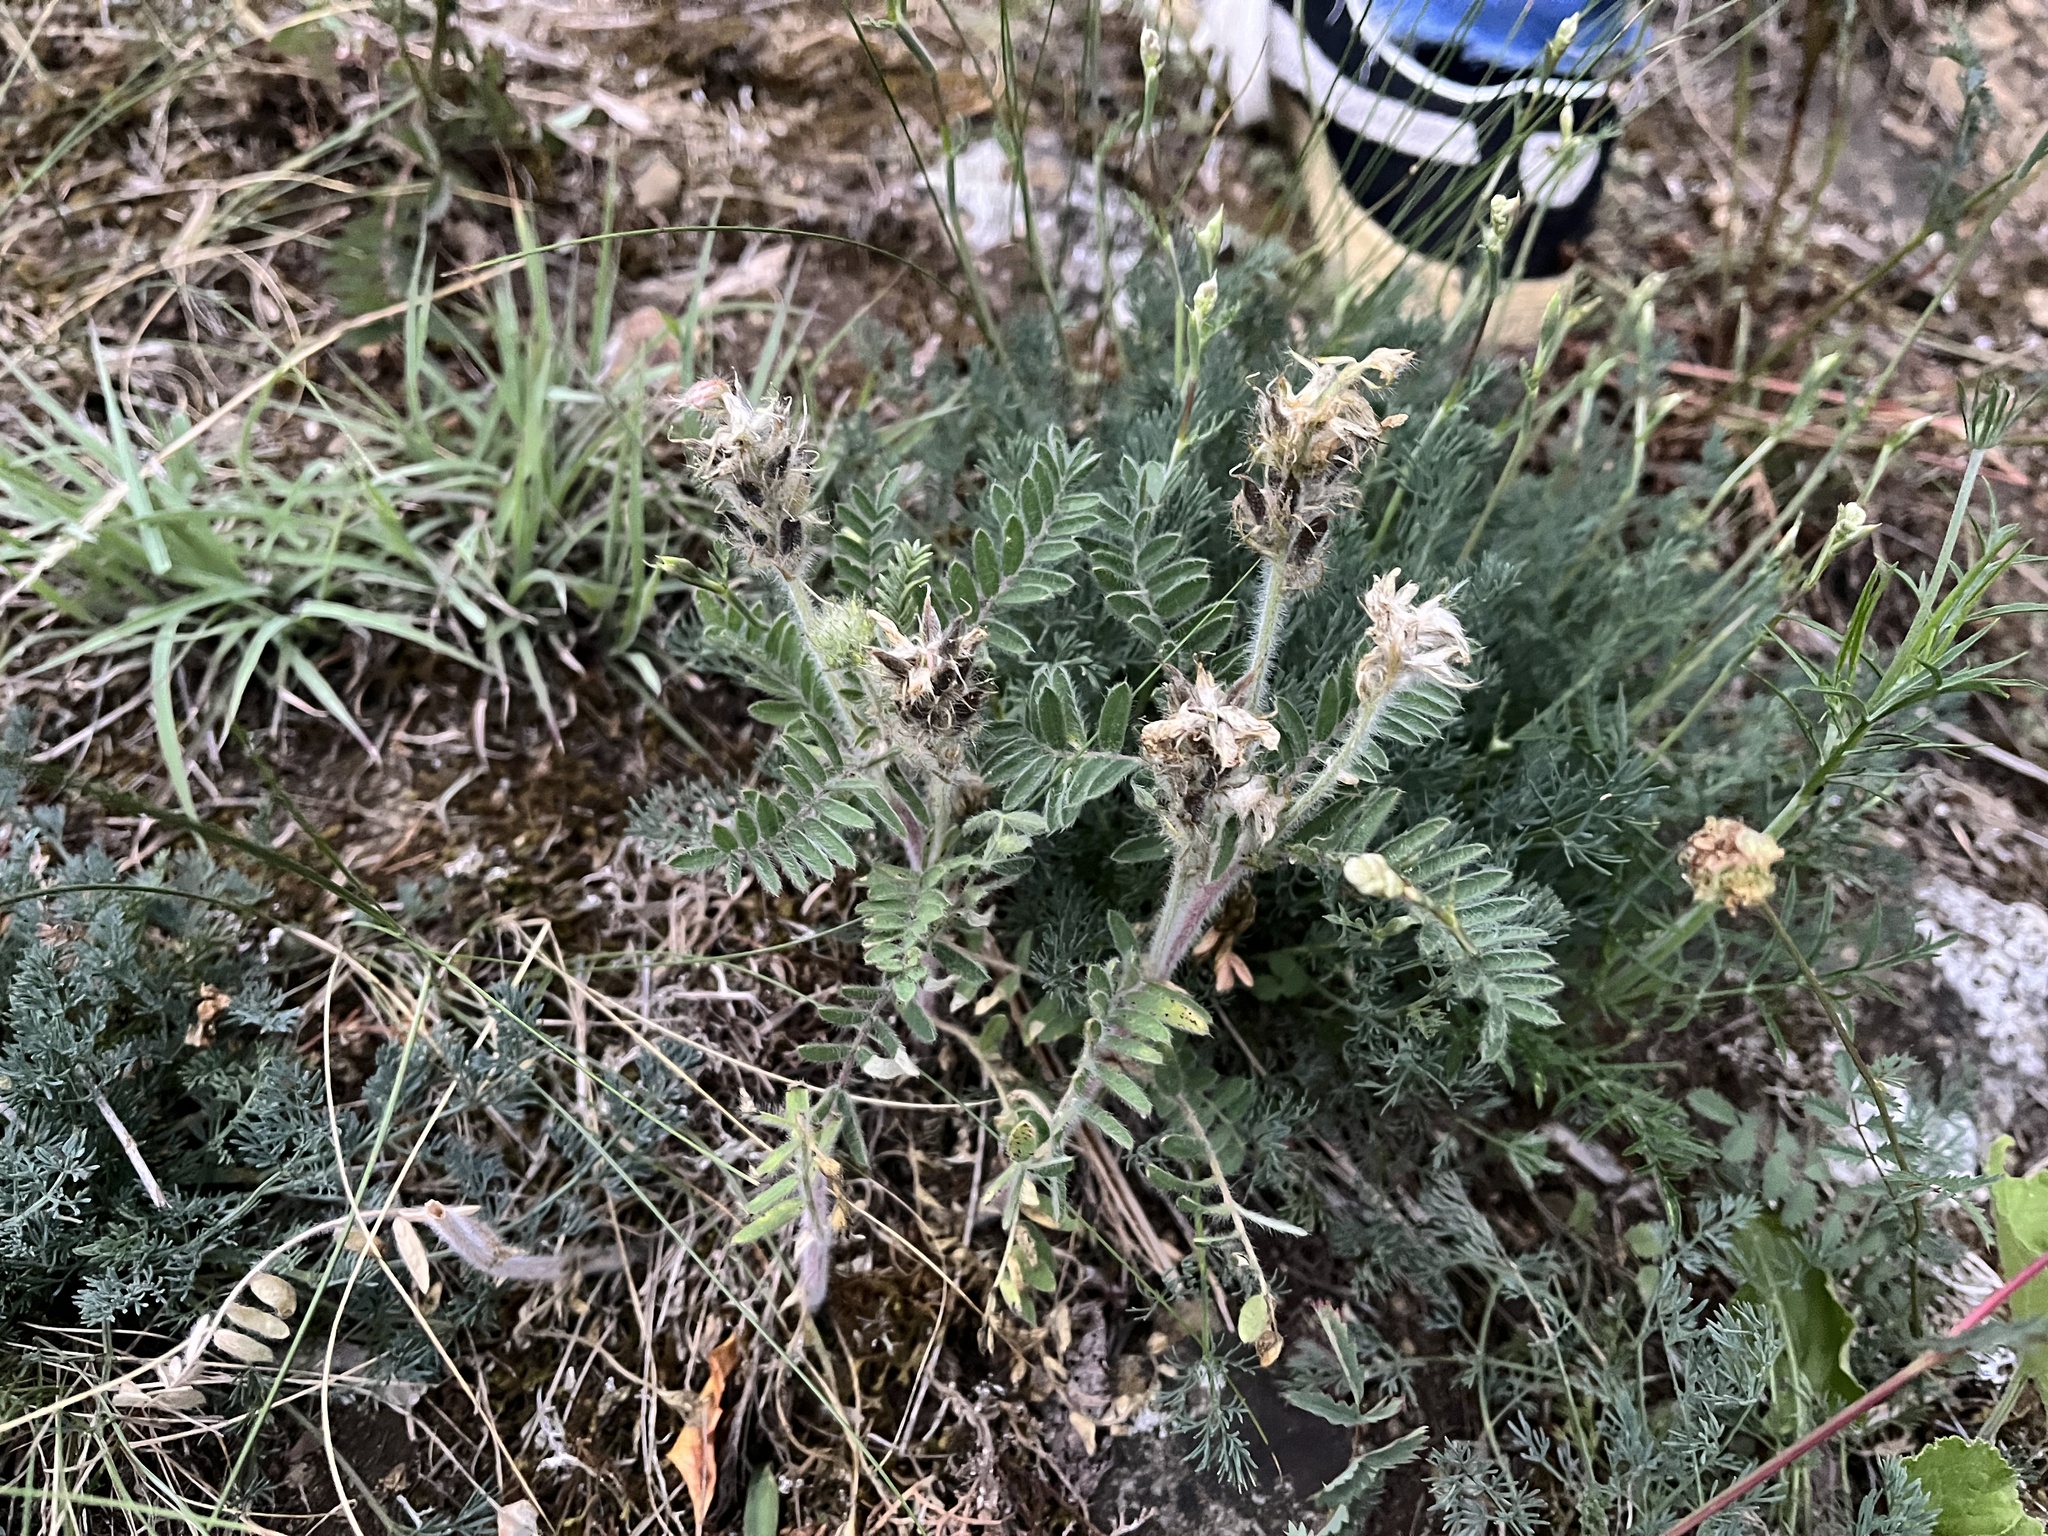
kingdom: Plantae
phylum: Tracheophyta
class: Magnoliopsida
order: Fabales
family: Fabaceae
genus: Oxytropis
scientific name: Oxytropis pilosa
